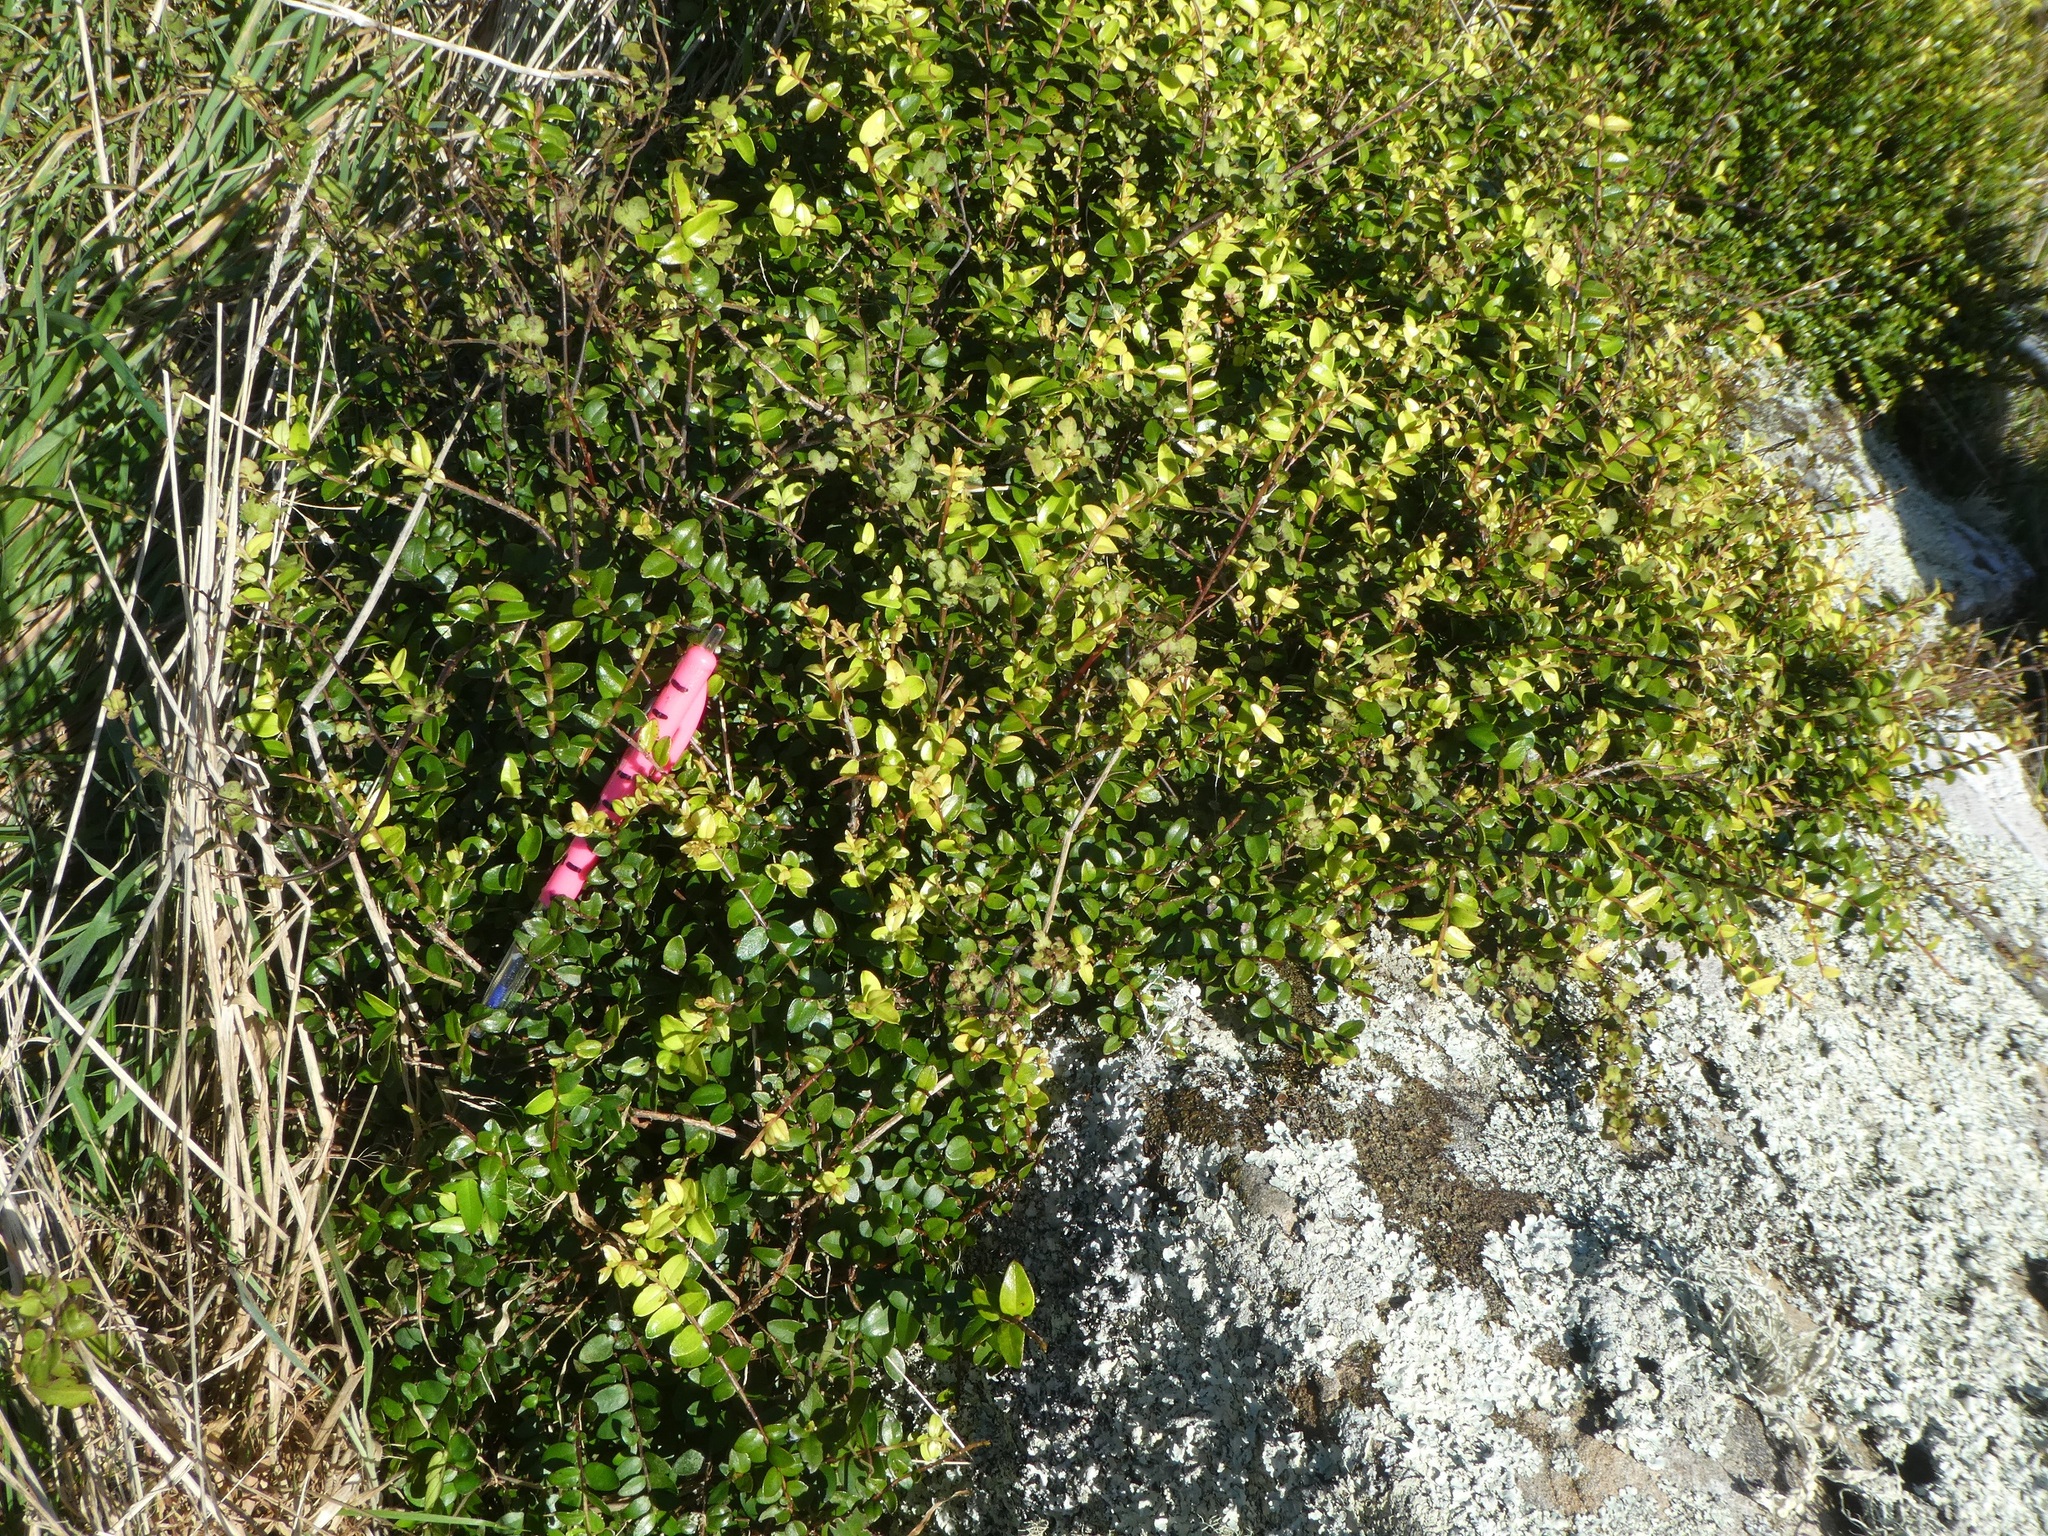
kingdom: Plantae
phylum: Tracheophyta
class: Magnoliopsida
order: Myrtales
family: Myrtaceae
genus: Metrosideros
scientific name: Metrosideros diffusa
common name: Small ratavine
